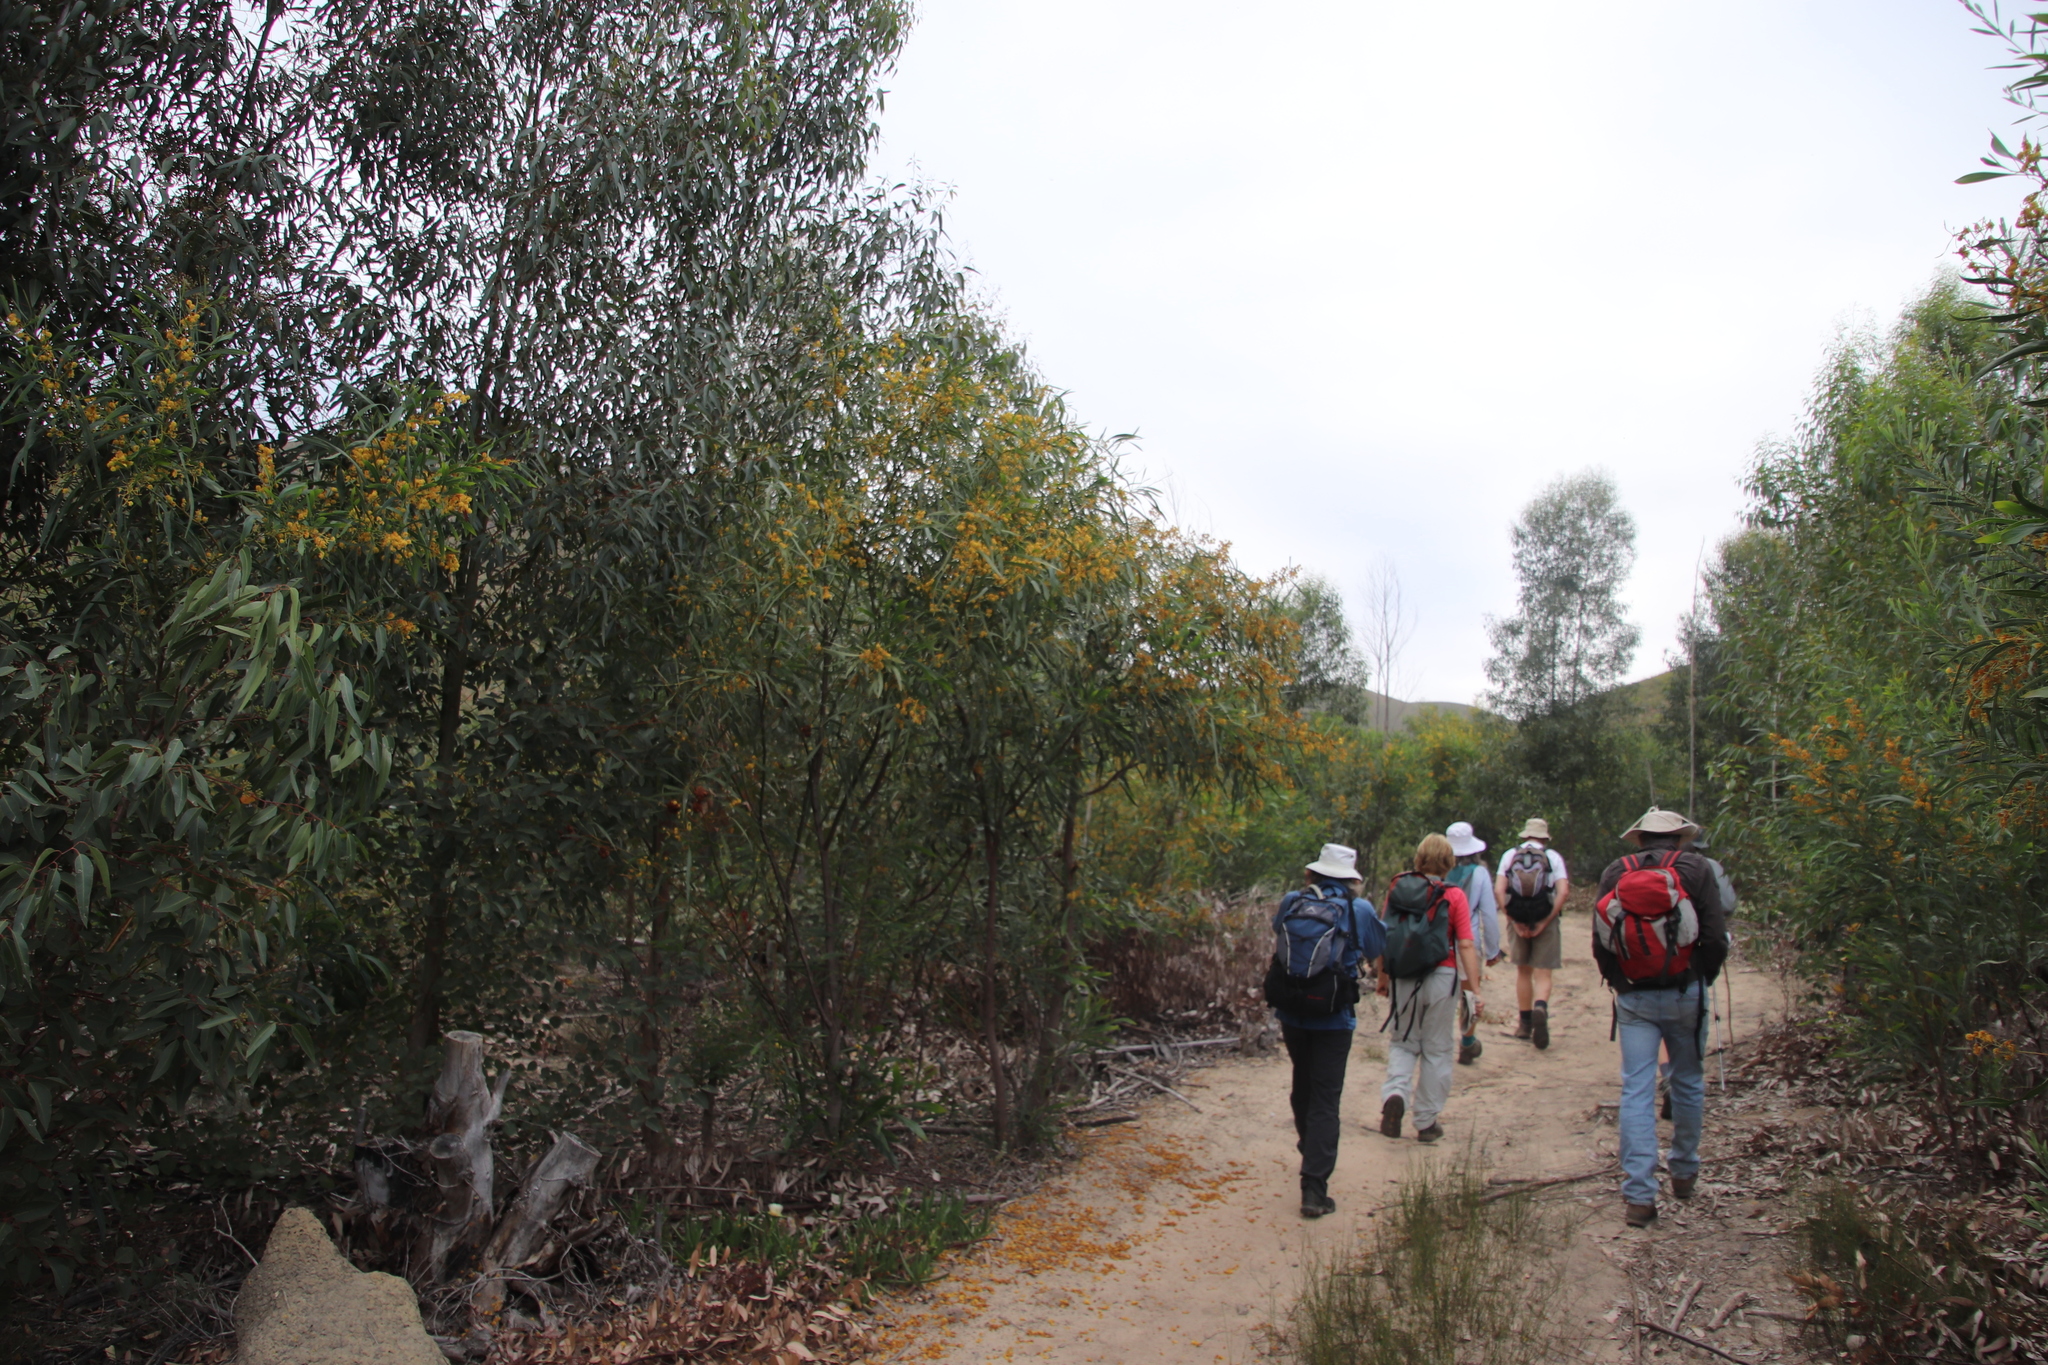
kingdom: Plantae
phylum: Tracheophyta
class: Magnoliopsida
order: Fabales
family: Fabaceae
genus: Acacia
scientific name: Acacia saligna
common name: Orange wattle
